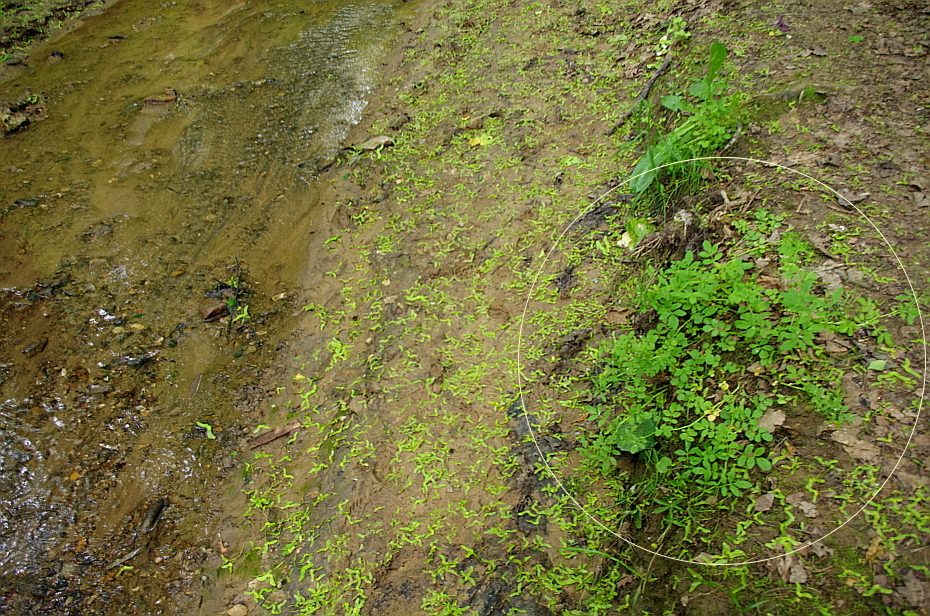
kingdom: Plantae
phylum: Tracheophyta
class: Magnoliopsida
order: Brassicales
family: Brassicaceae
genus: Cardamine
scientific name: Cardamine amara
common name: Large bitter-cress
